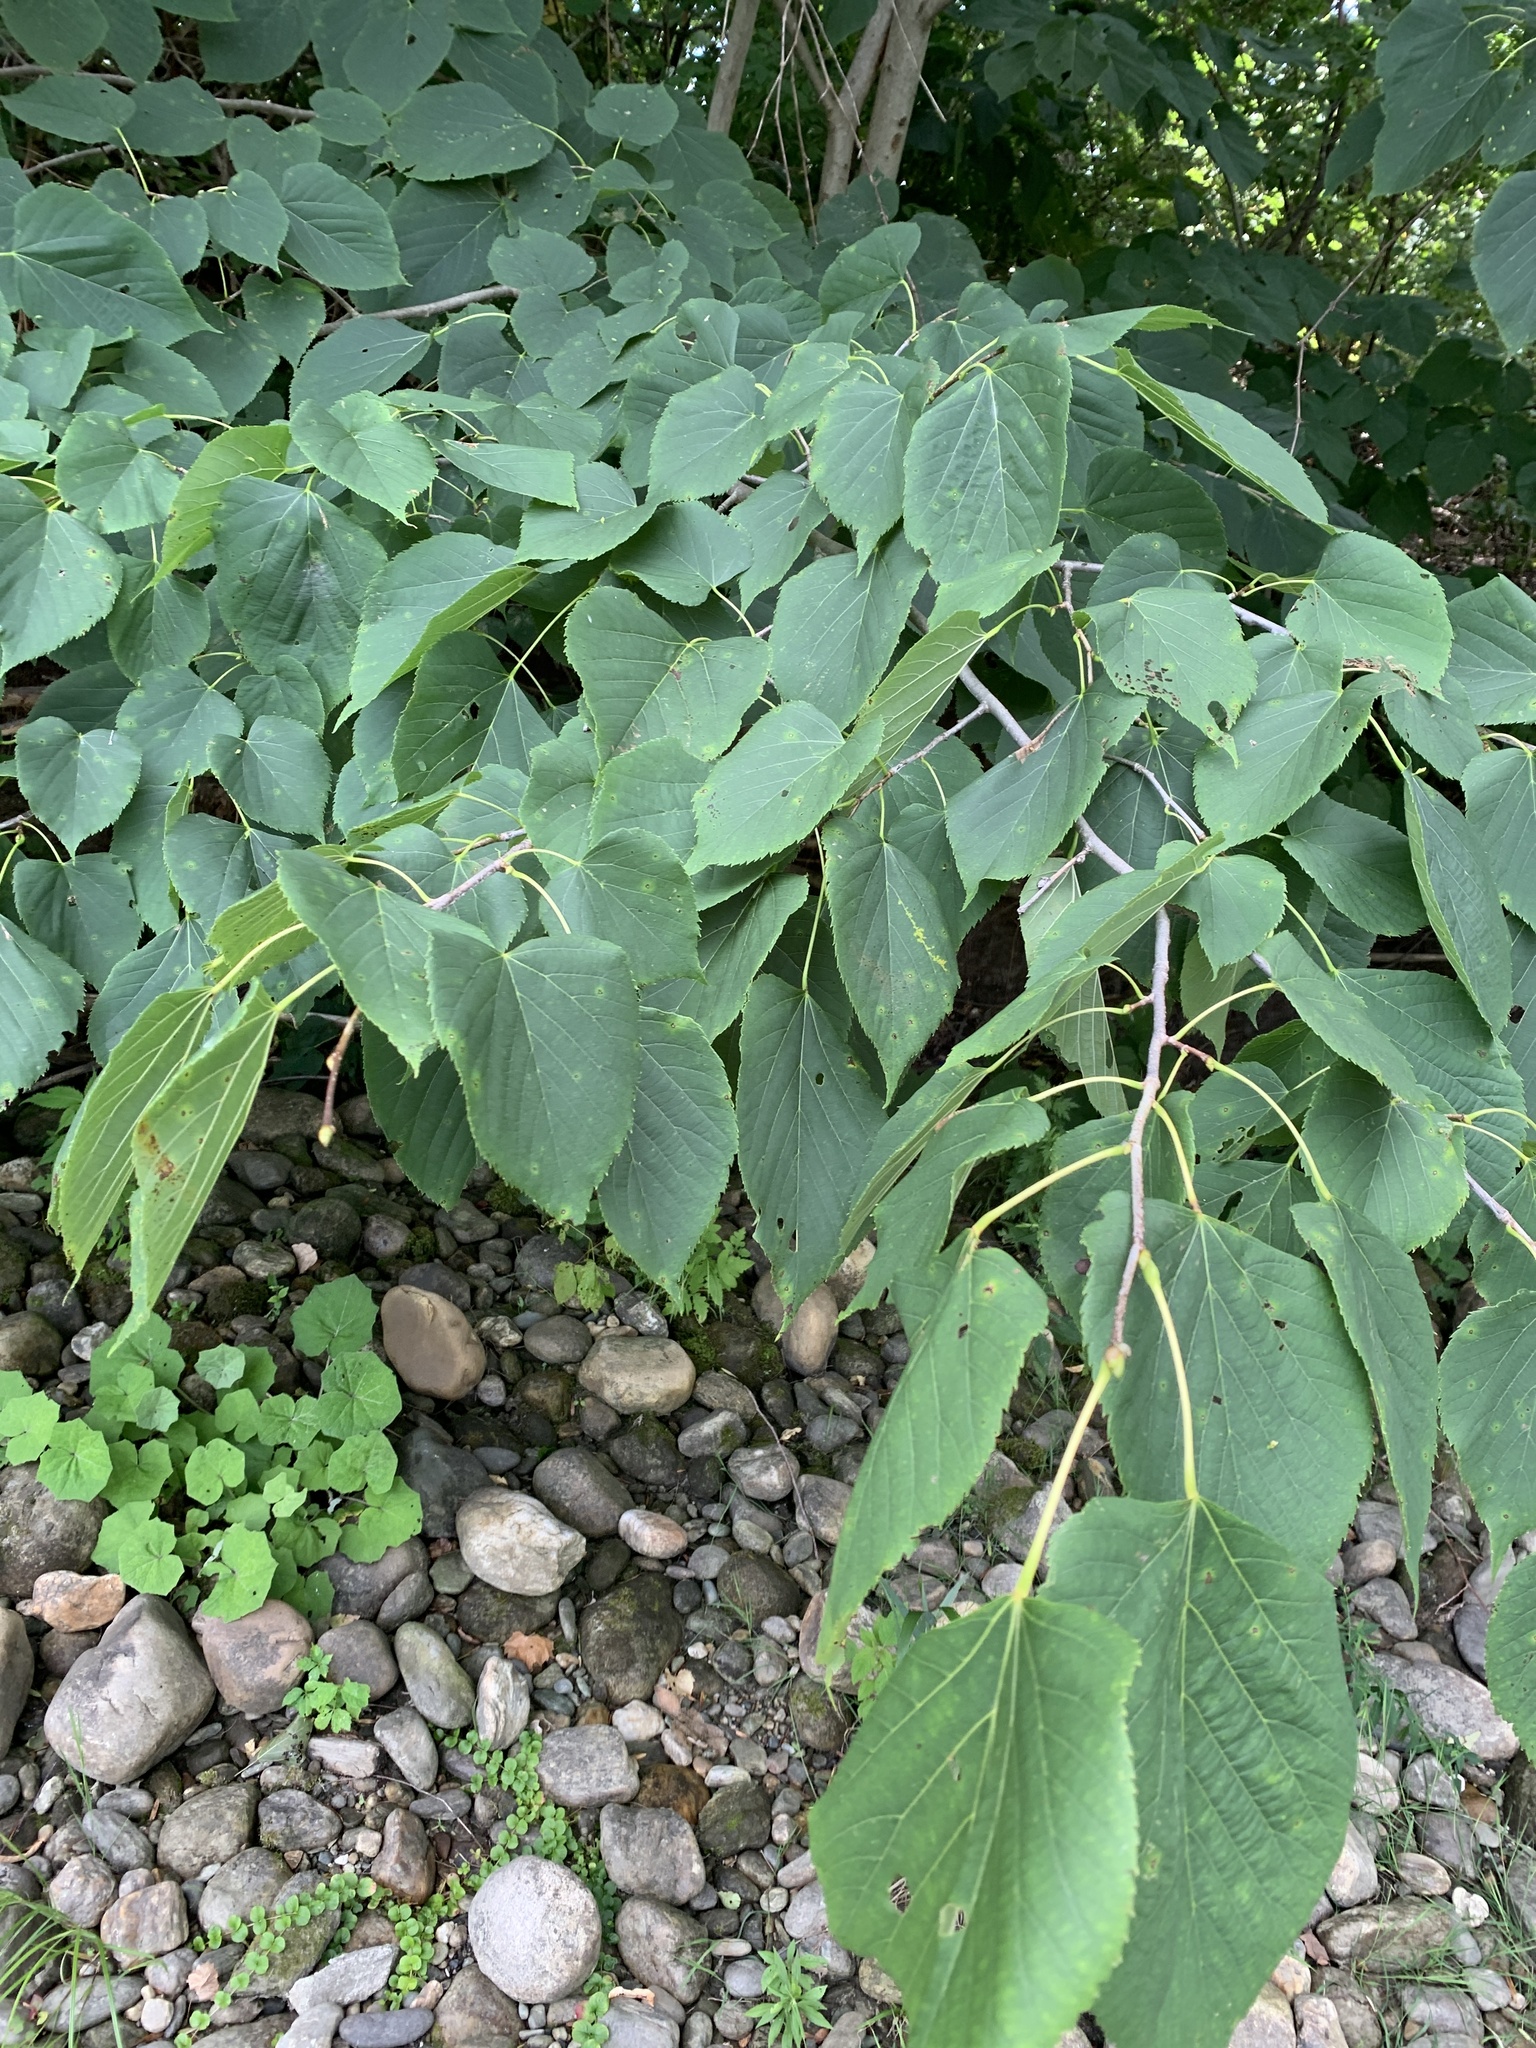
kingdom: Plantae
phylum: Tracheophyta
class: Magnoliopsida
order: Malvales
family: Malvaceae
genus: Tilia
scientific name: Tilia americana
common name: Basswood
